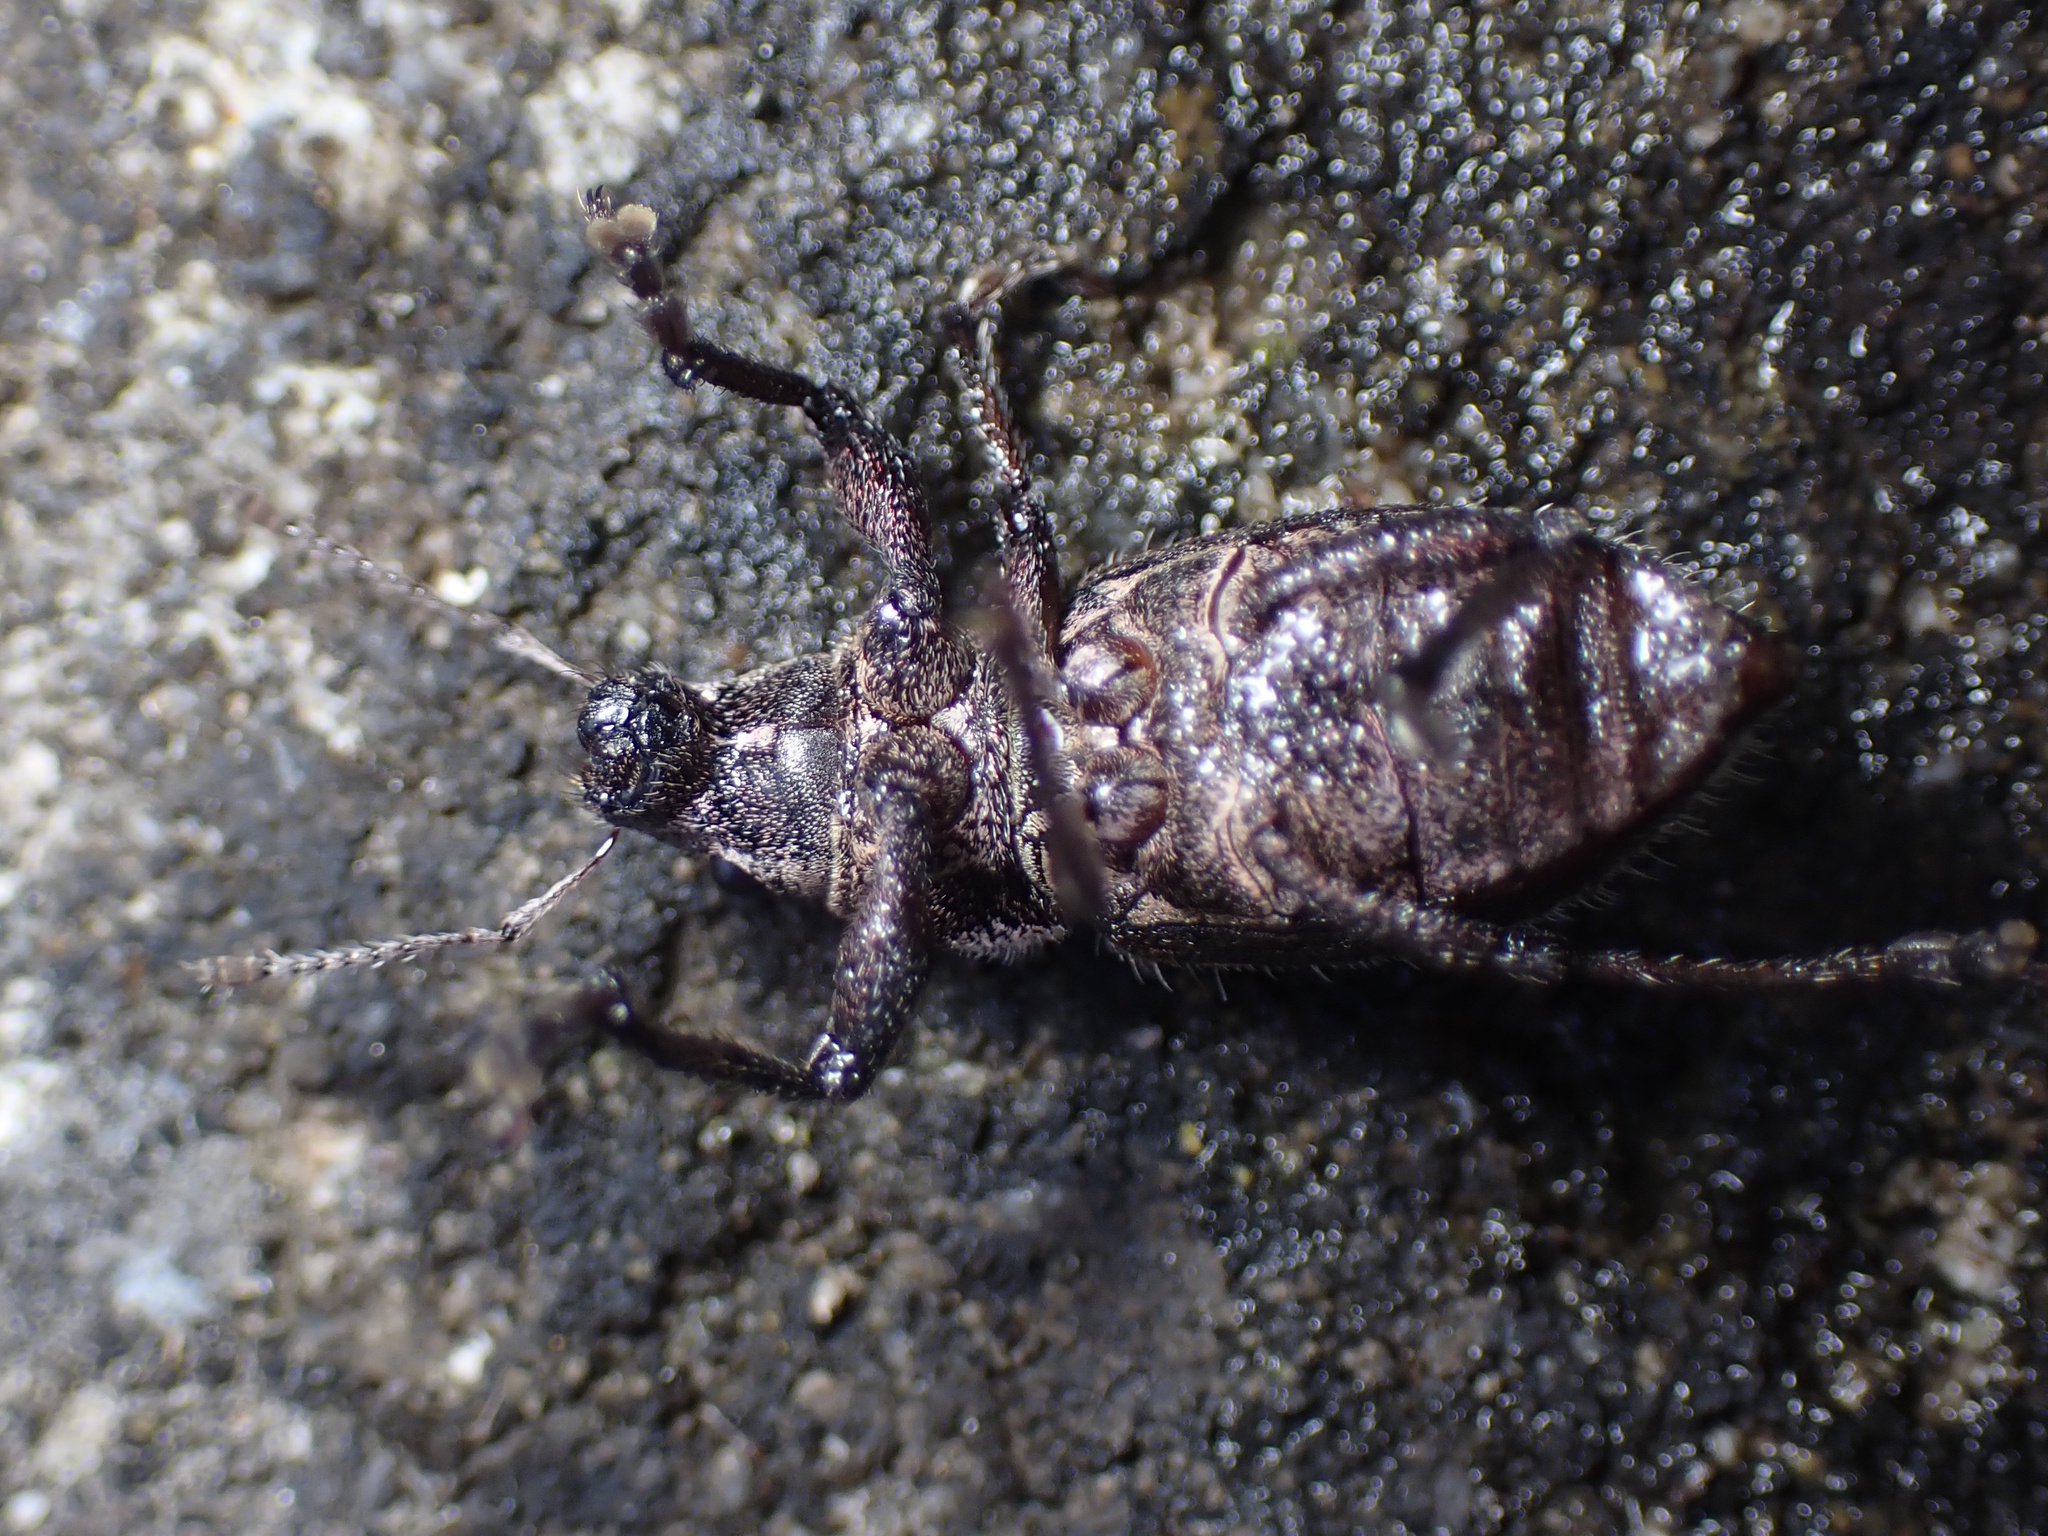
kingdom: Animalia
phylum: Arthropoda
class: Insecta
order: Coleoptera
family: Curculionidae
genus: Naupactus
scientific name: Naupactus leucoloma
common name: Whitefringed beetle
